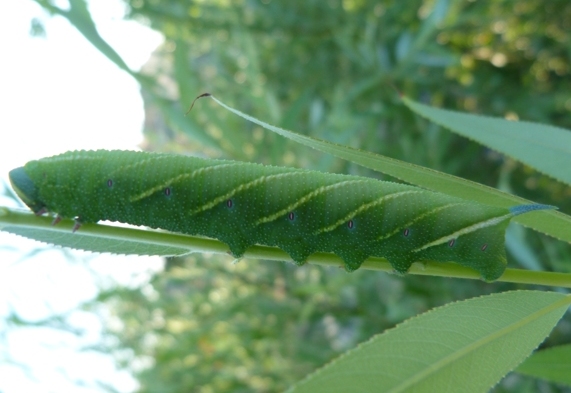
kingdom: Animalia
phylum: Arthropoda
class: Insecta
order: Lepidoptera
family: Sphingidae
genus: Smerinthus
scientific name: Smerinthus ocellata
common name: Eyed hawk-moth
